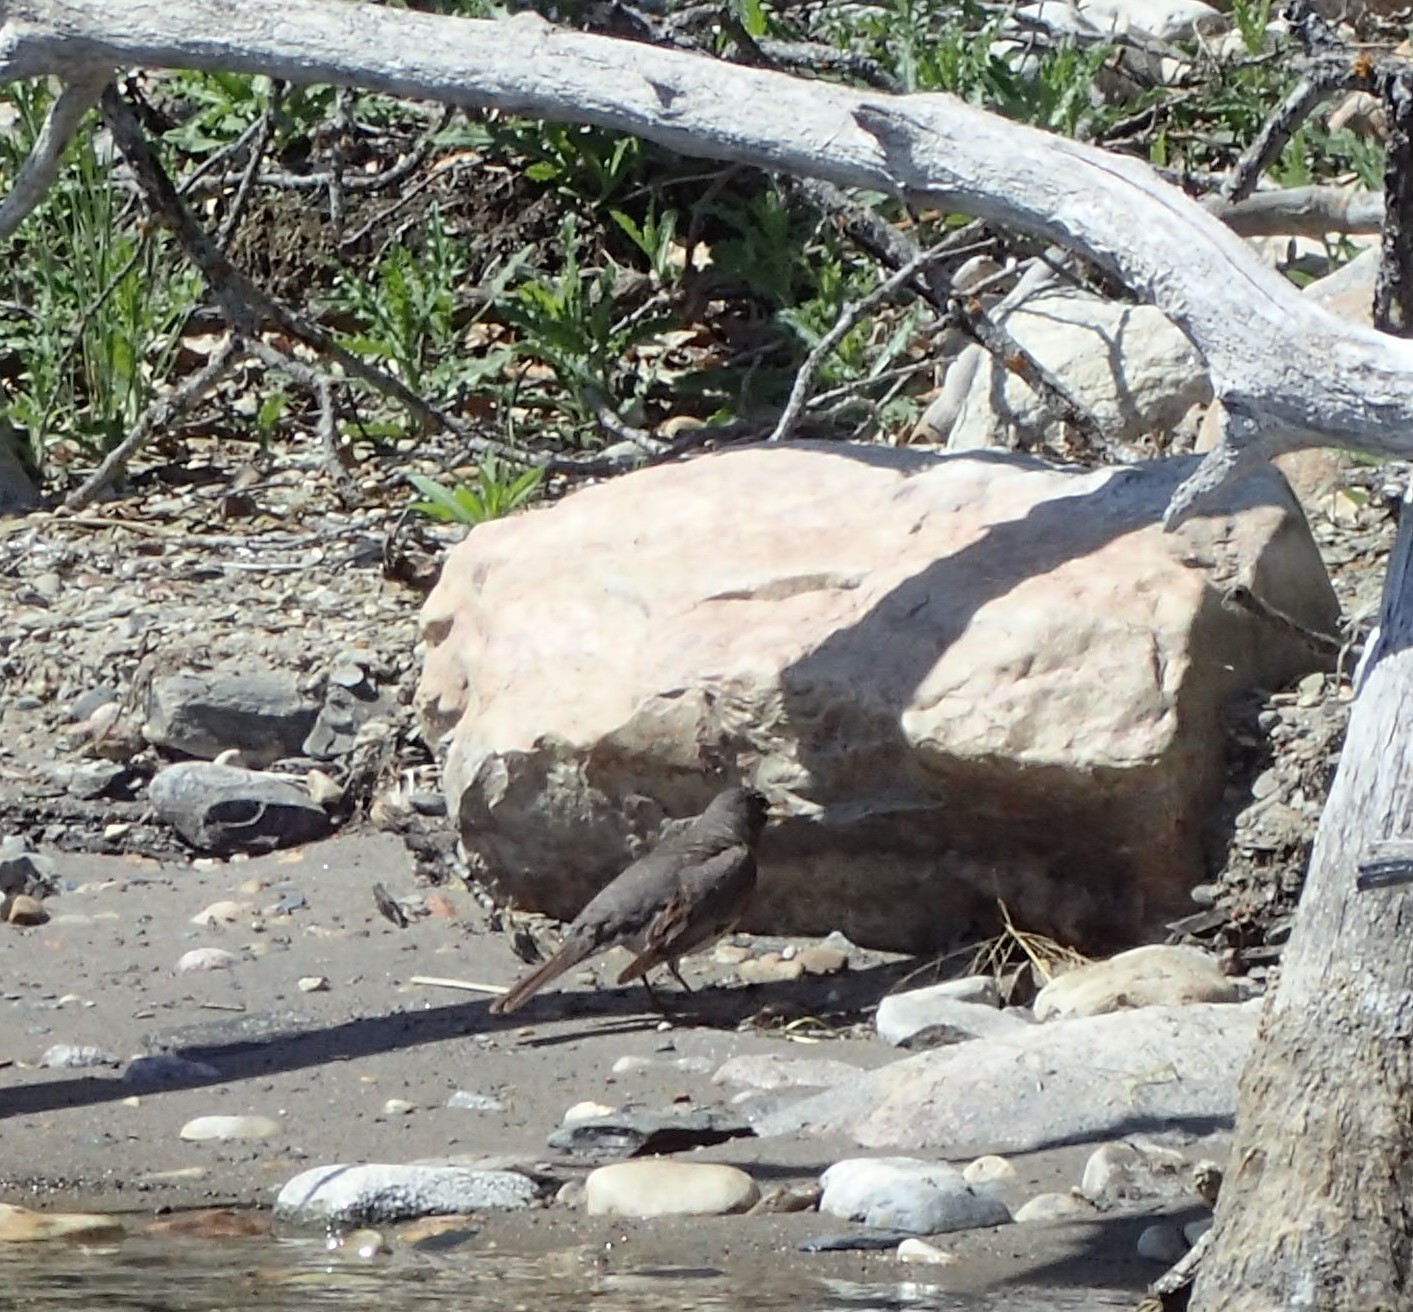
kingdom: Animalia
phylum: Chordata
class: Aves
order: Passeriformes
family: Turdidae
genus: Turdus
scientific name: Turdus migratorius
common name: American robin
